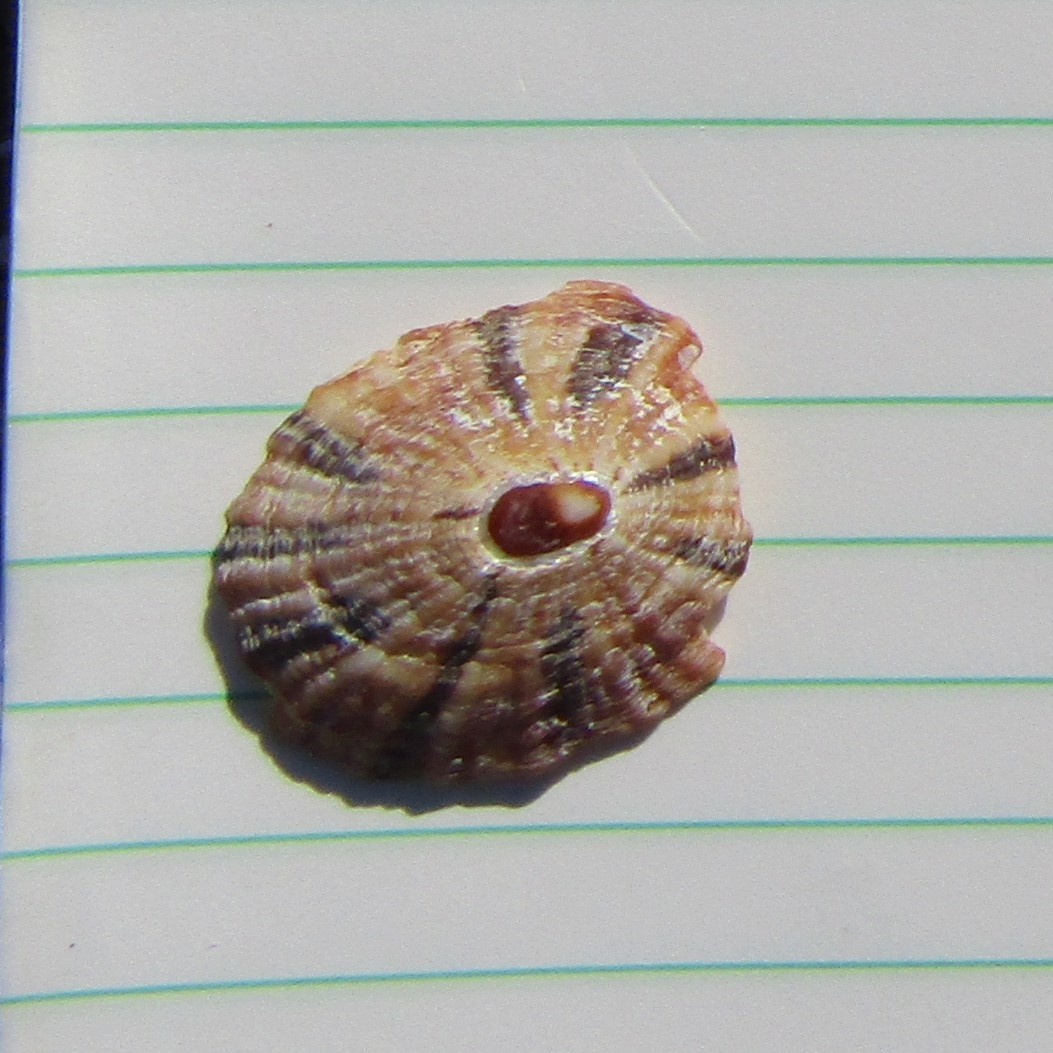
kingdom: Animalia
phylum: Mollusca
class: Gastropoda
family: Nacellidae
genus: Cellana
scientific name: Cellana stellifera
